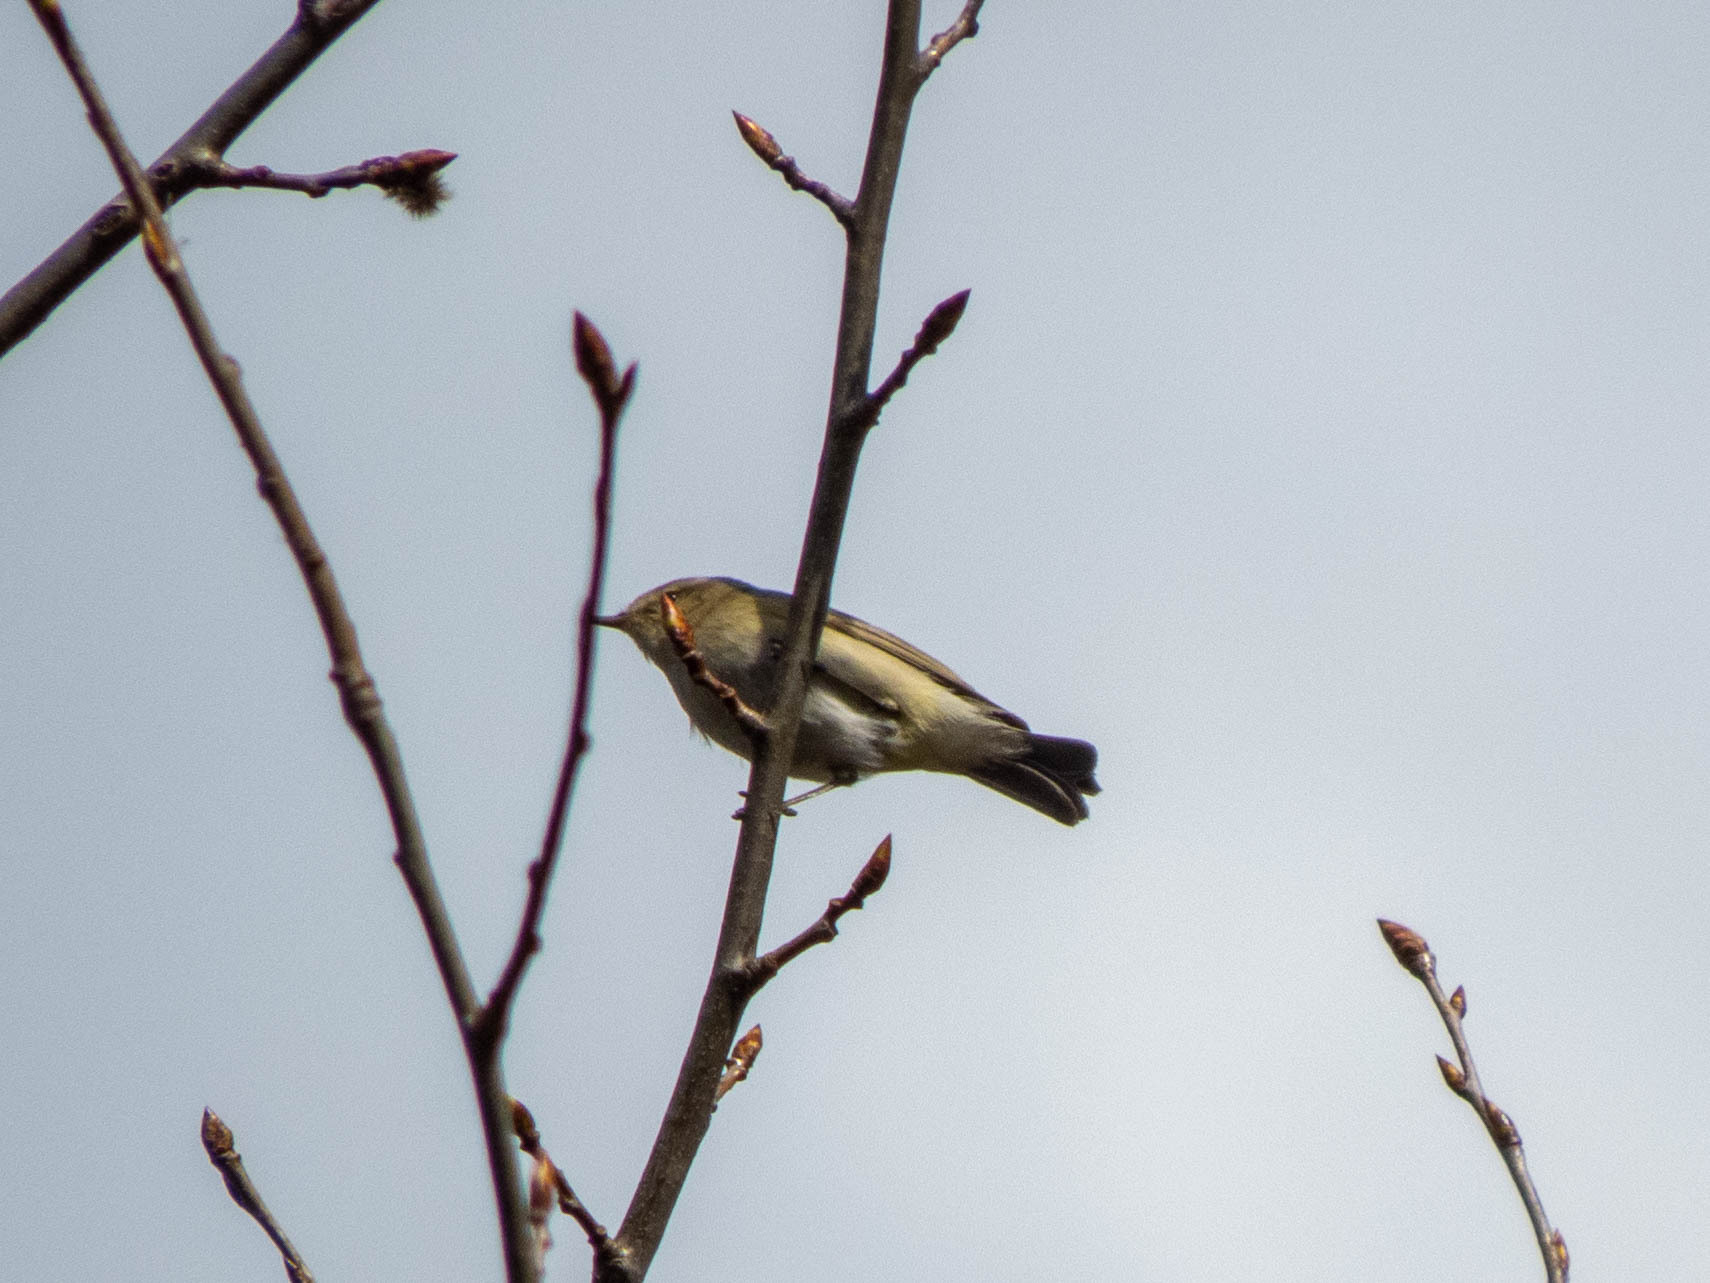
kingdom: Animalia
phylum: Chordata
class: Aves
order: Passeriformes
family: Phylloscopidae
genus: Phylloscopus
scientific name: Phylloscopus collybita
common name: Common chiffchaff
